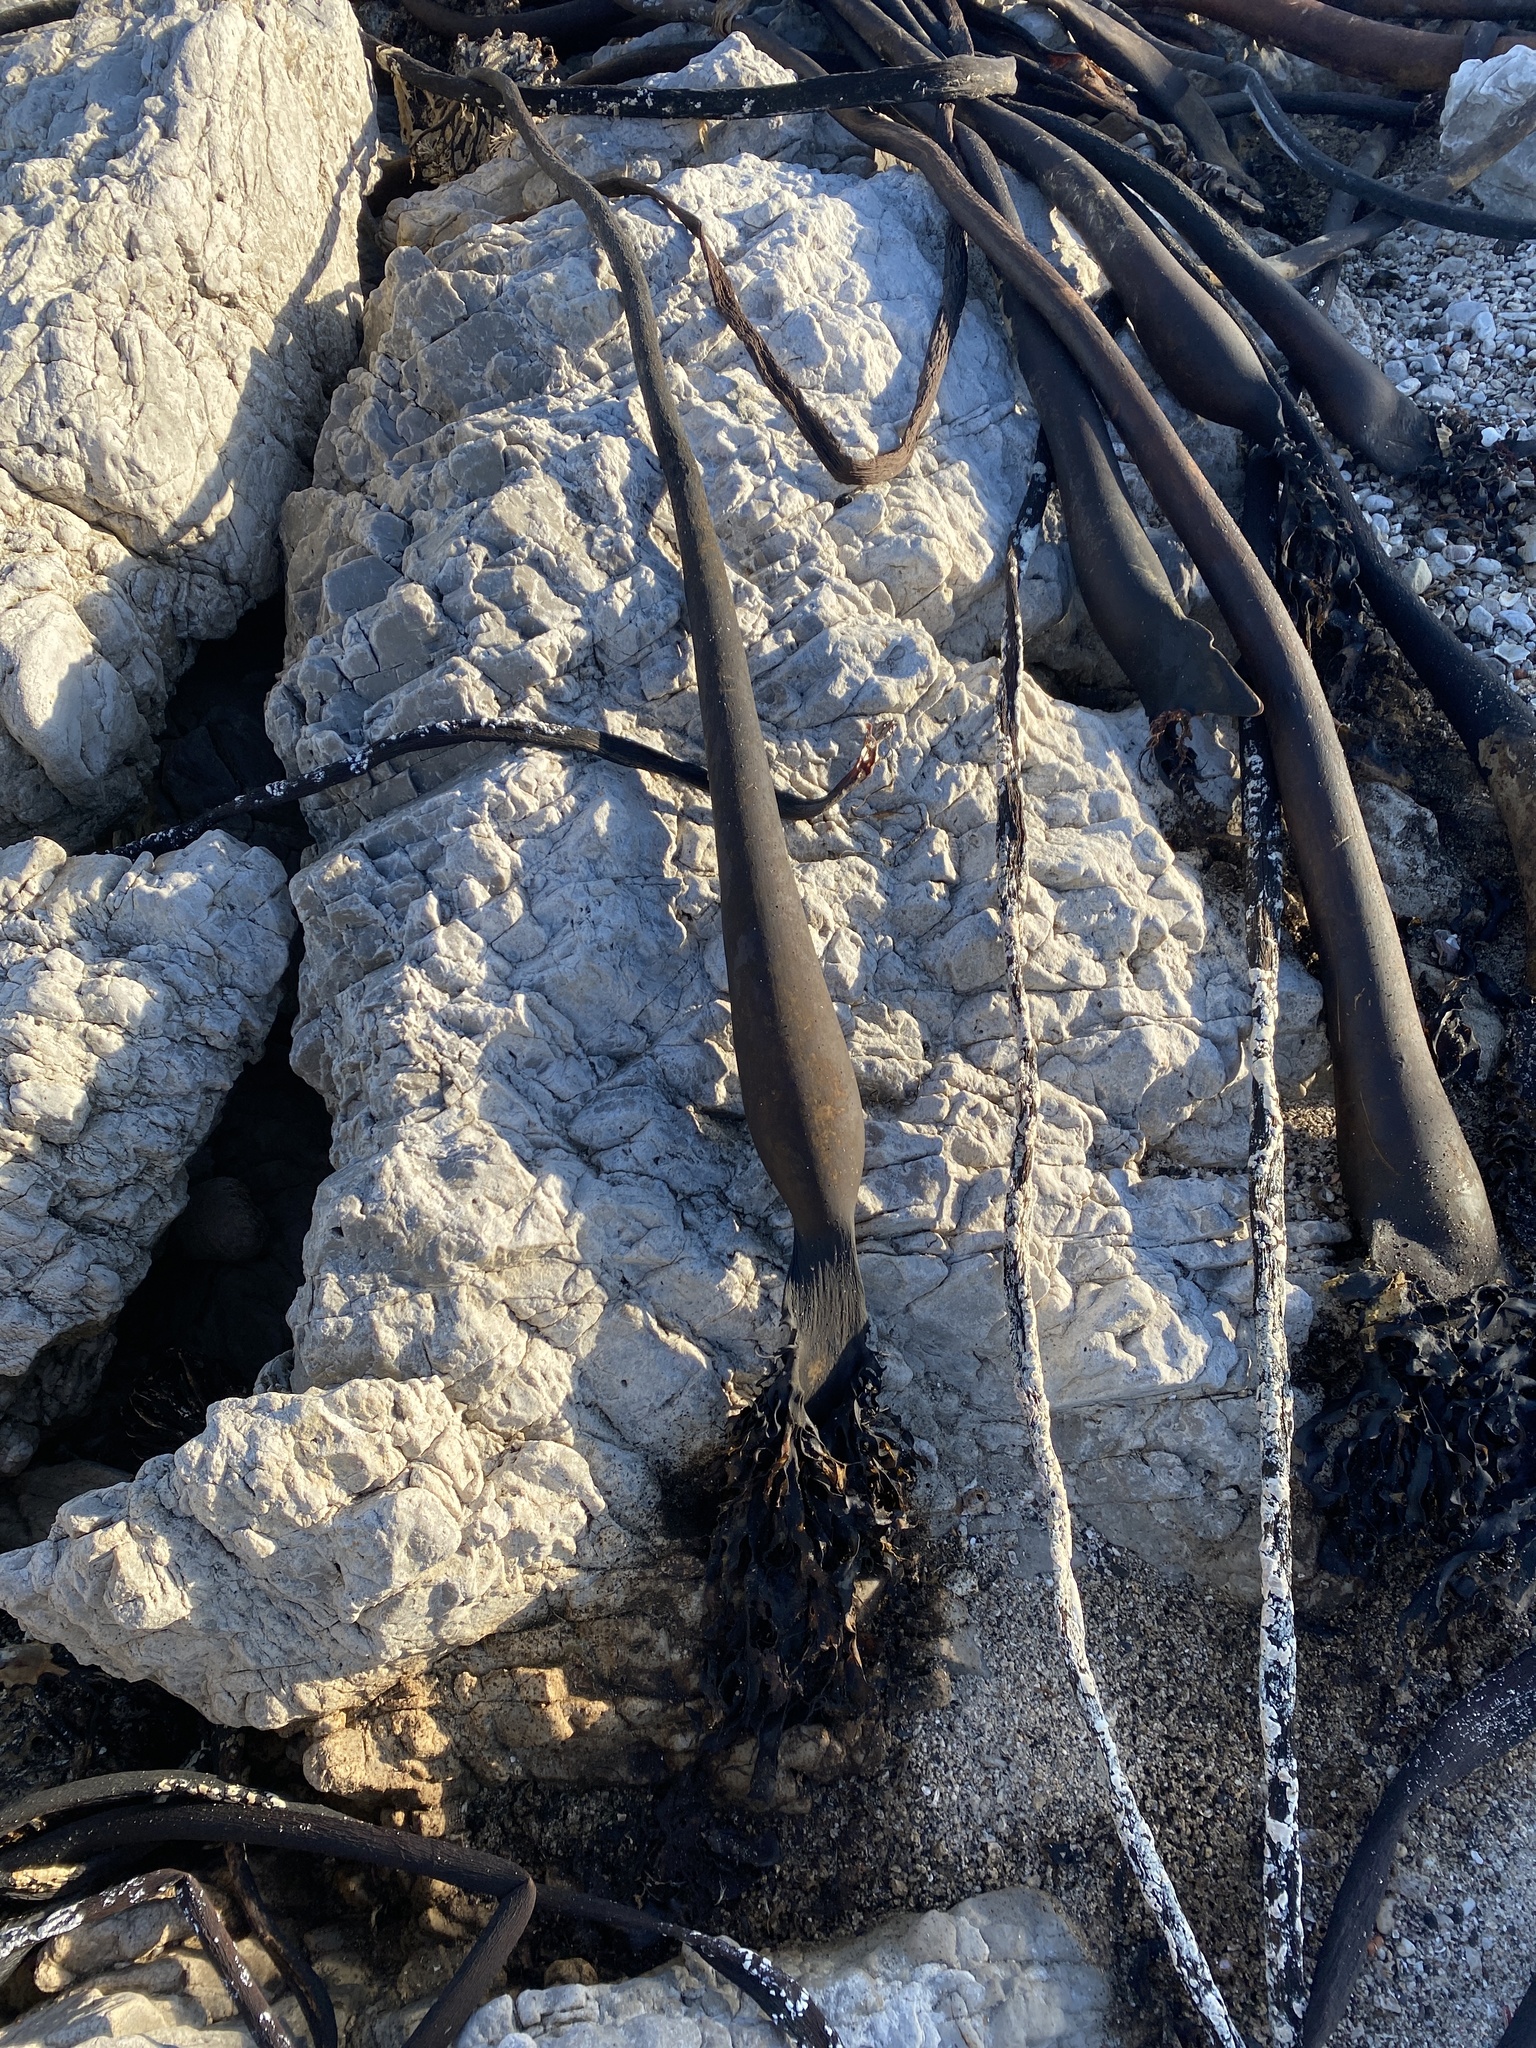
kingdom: Chromista
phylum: Ochrophyta
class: Phaeophyceae
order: Laminariales
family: Lessoniaceae
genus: Ecklonia
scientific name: Ecklonia
